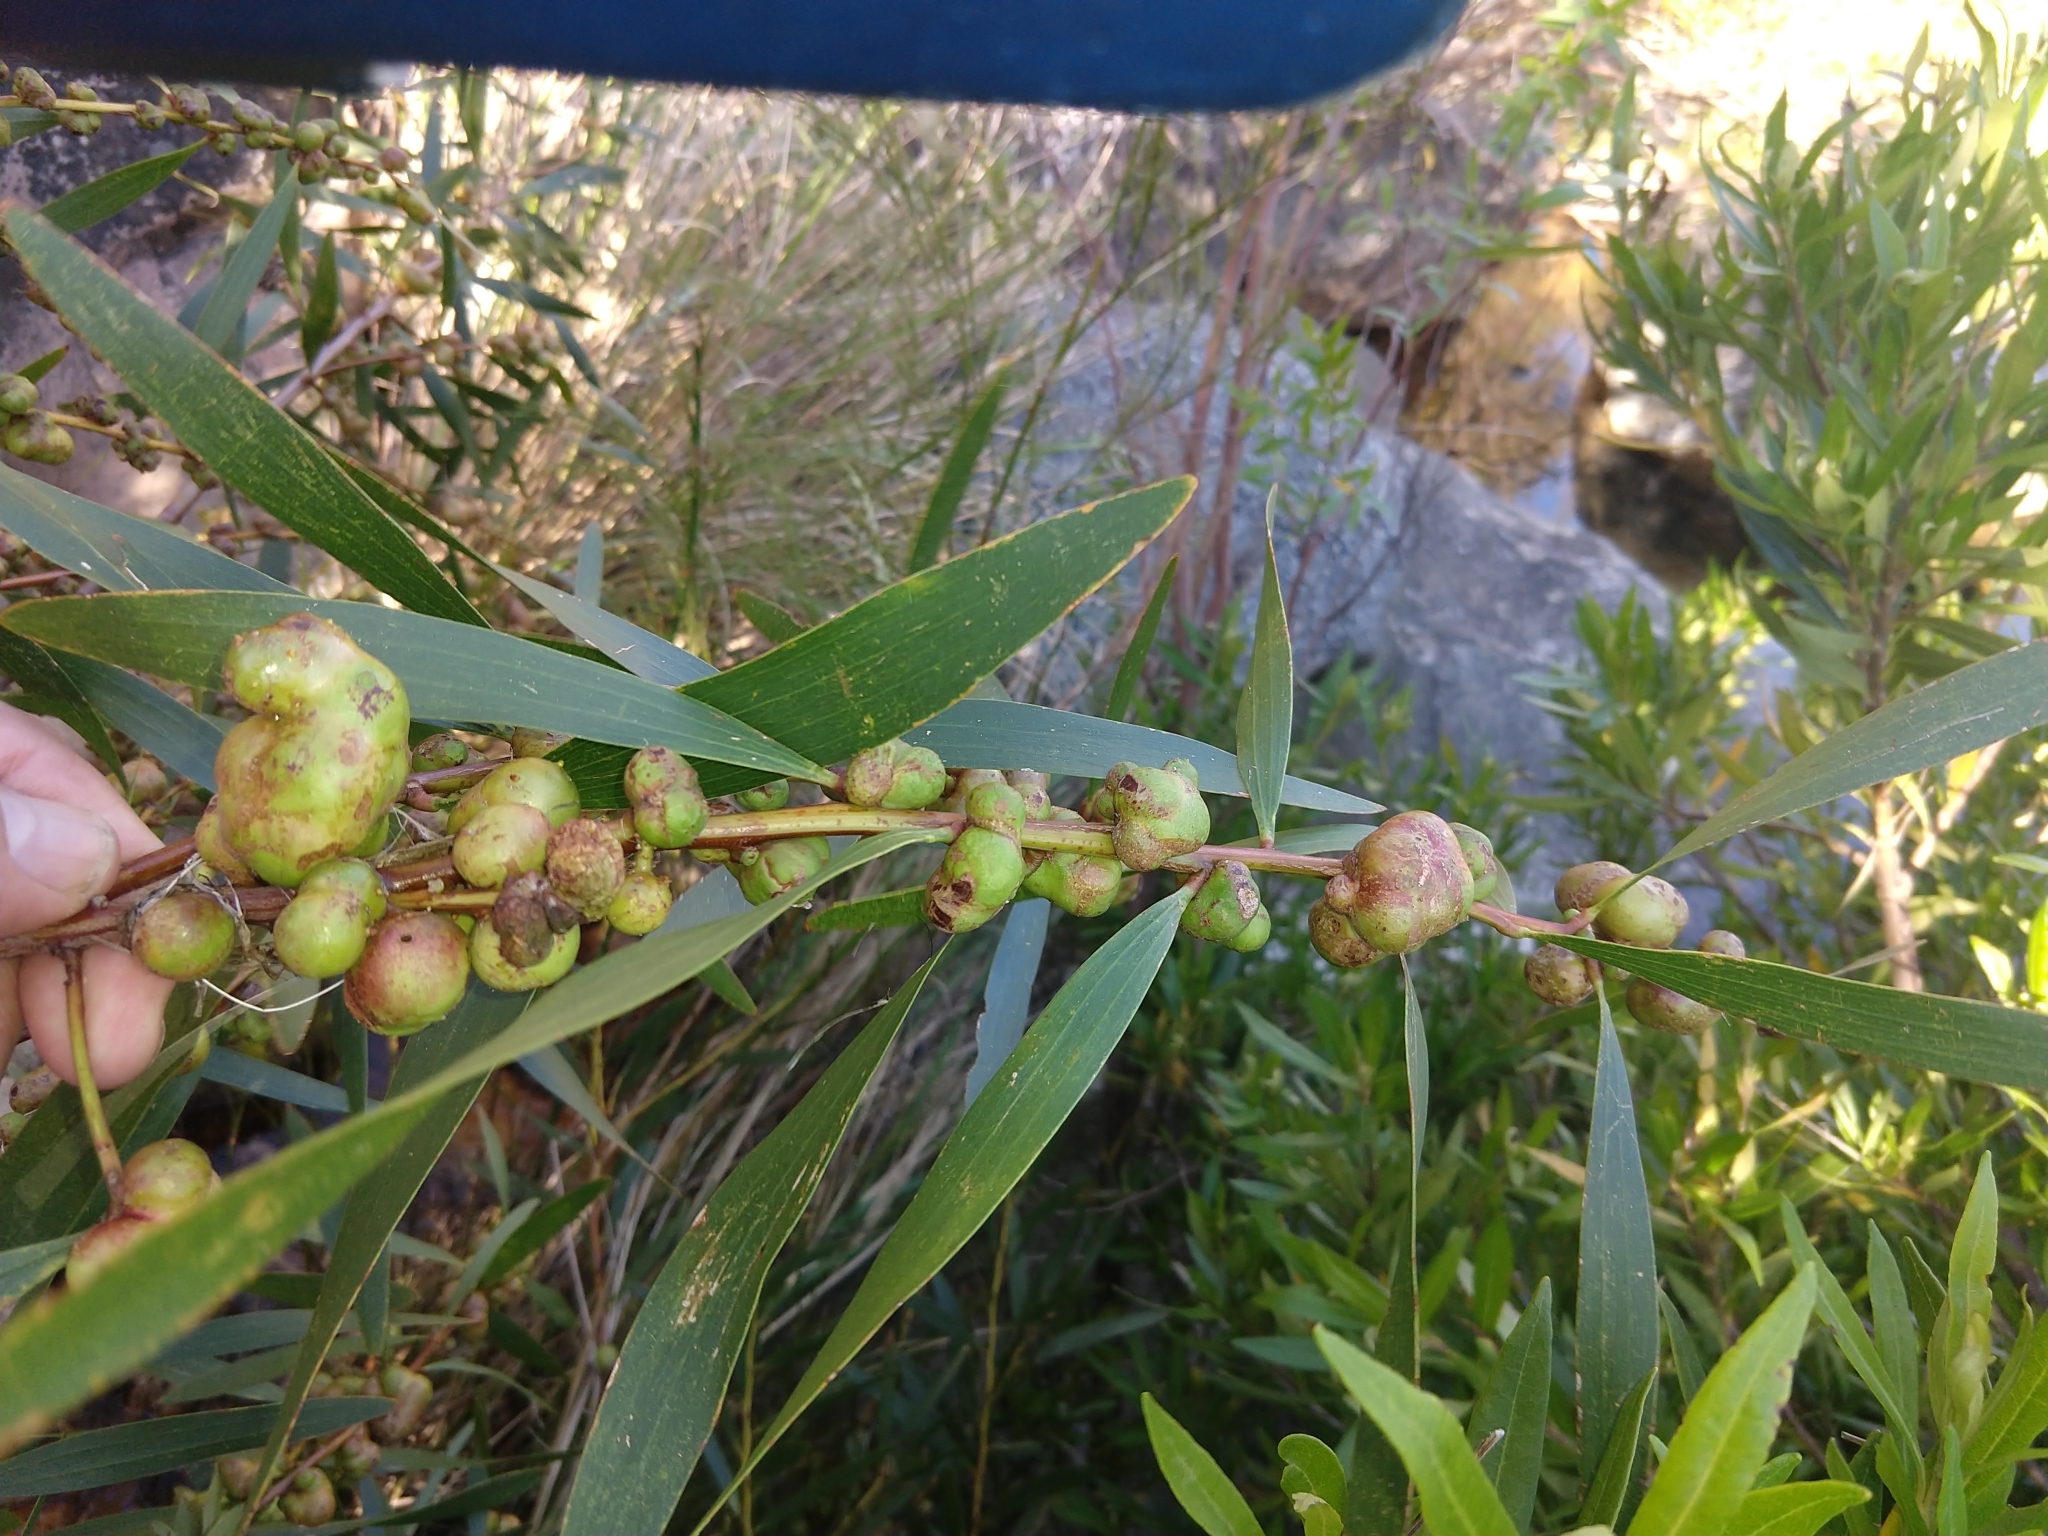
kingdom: Animalia
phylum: Arthropoda
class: Insecta
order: Hymenoptera
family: Pteromalidae
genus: Trichilogaster
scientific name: Trichilogaster acaciaelongifoliae
